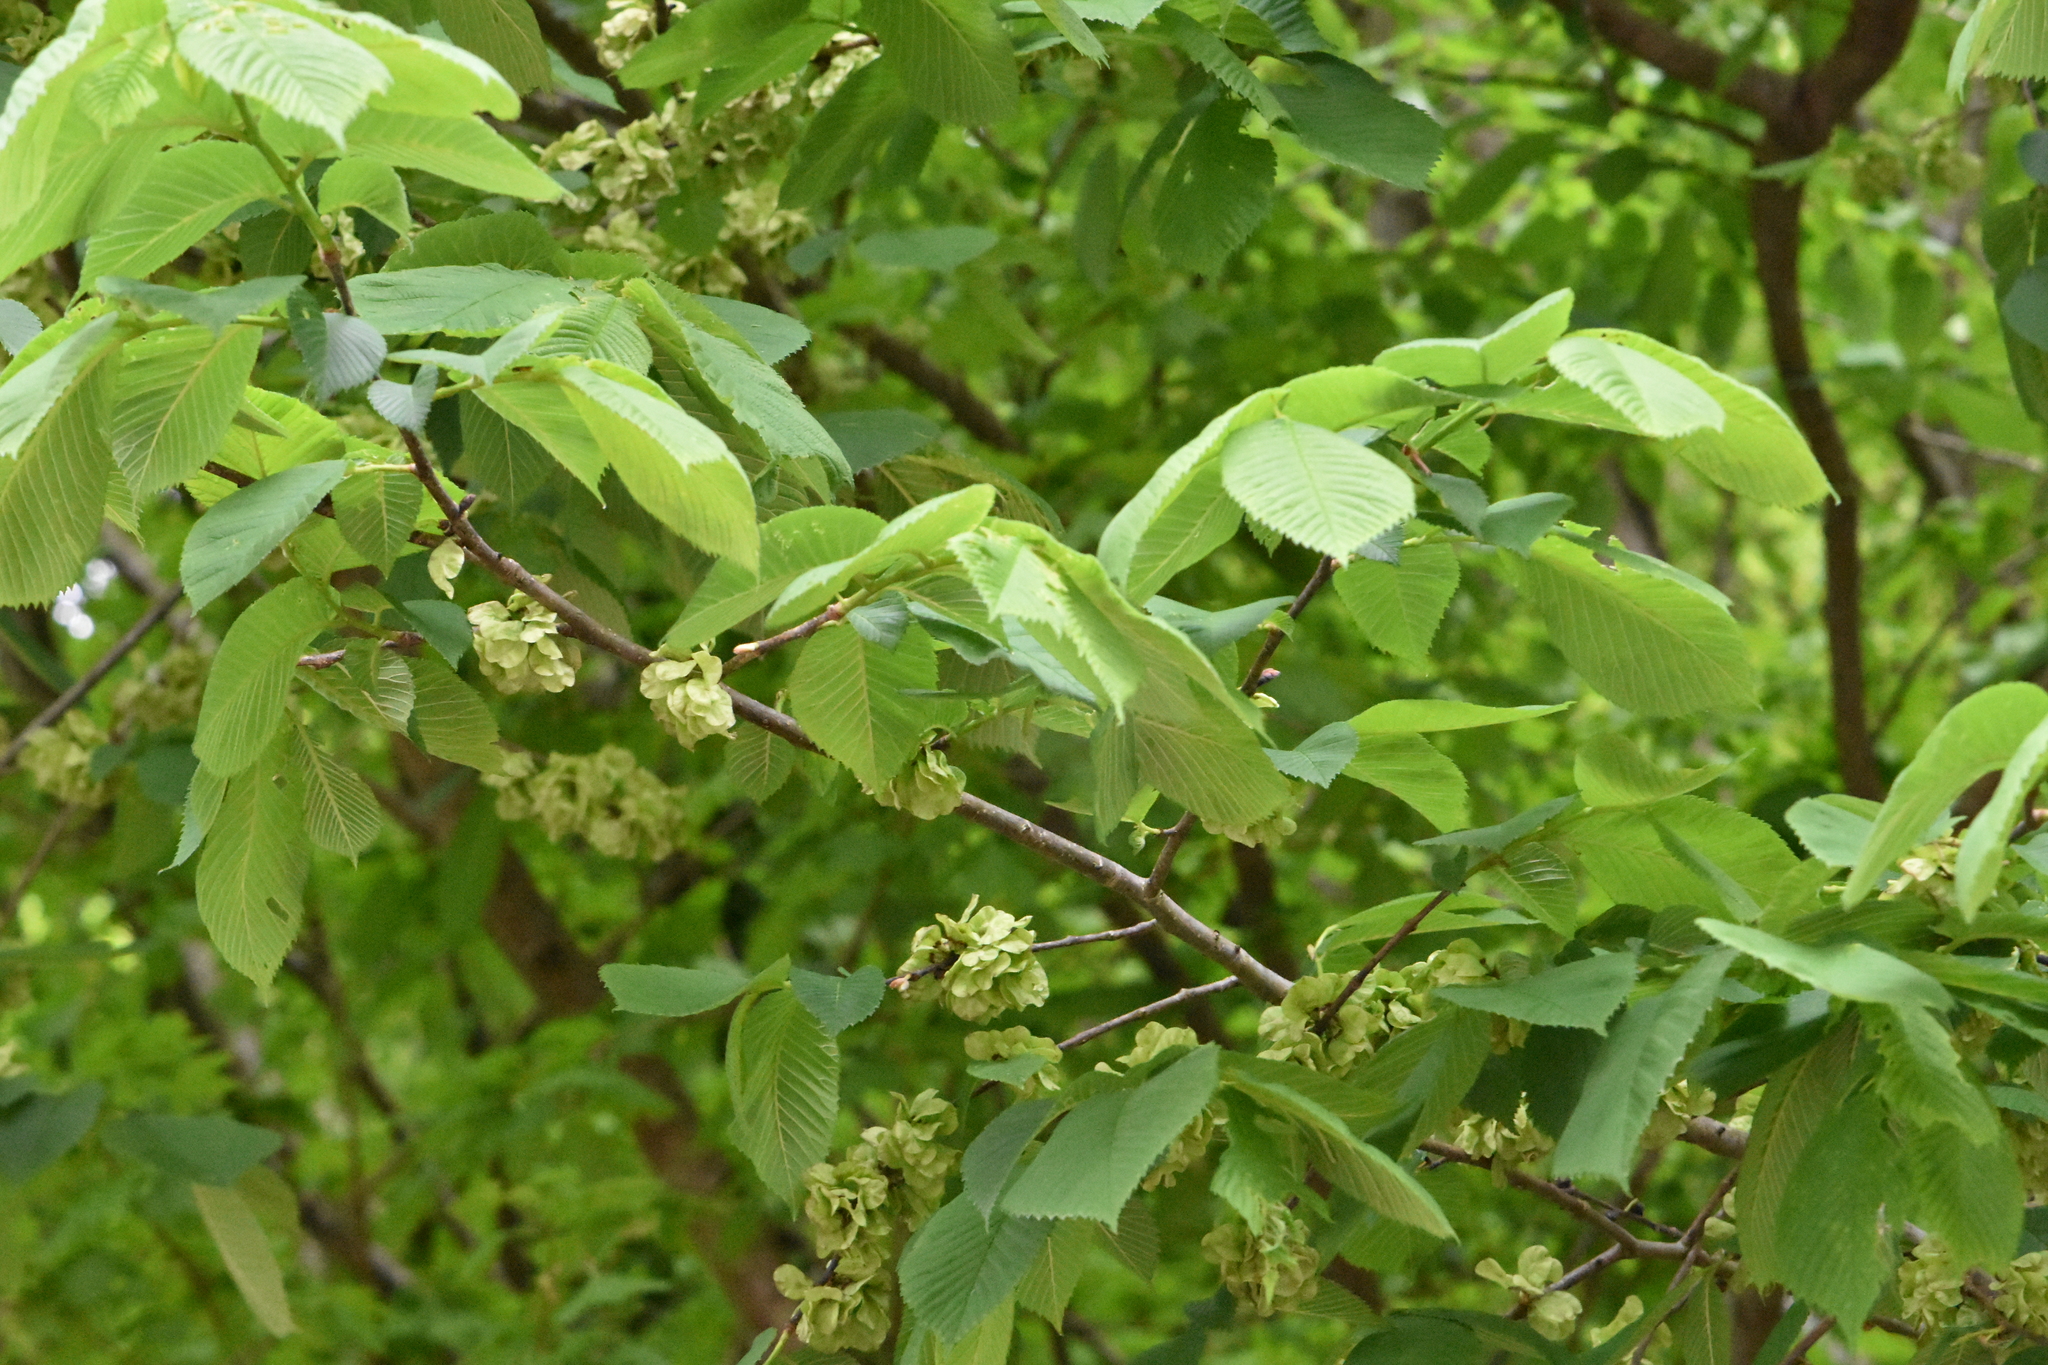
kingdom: Plantae
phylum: Tracheophyta
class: Magnoliopsida
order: Rosales
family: Ulmaceae
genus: Ulmus
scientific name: Ulmus glabra
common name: Wych elm
